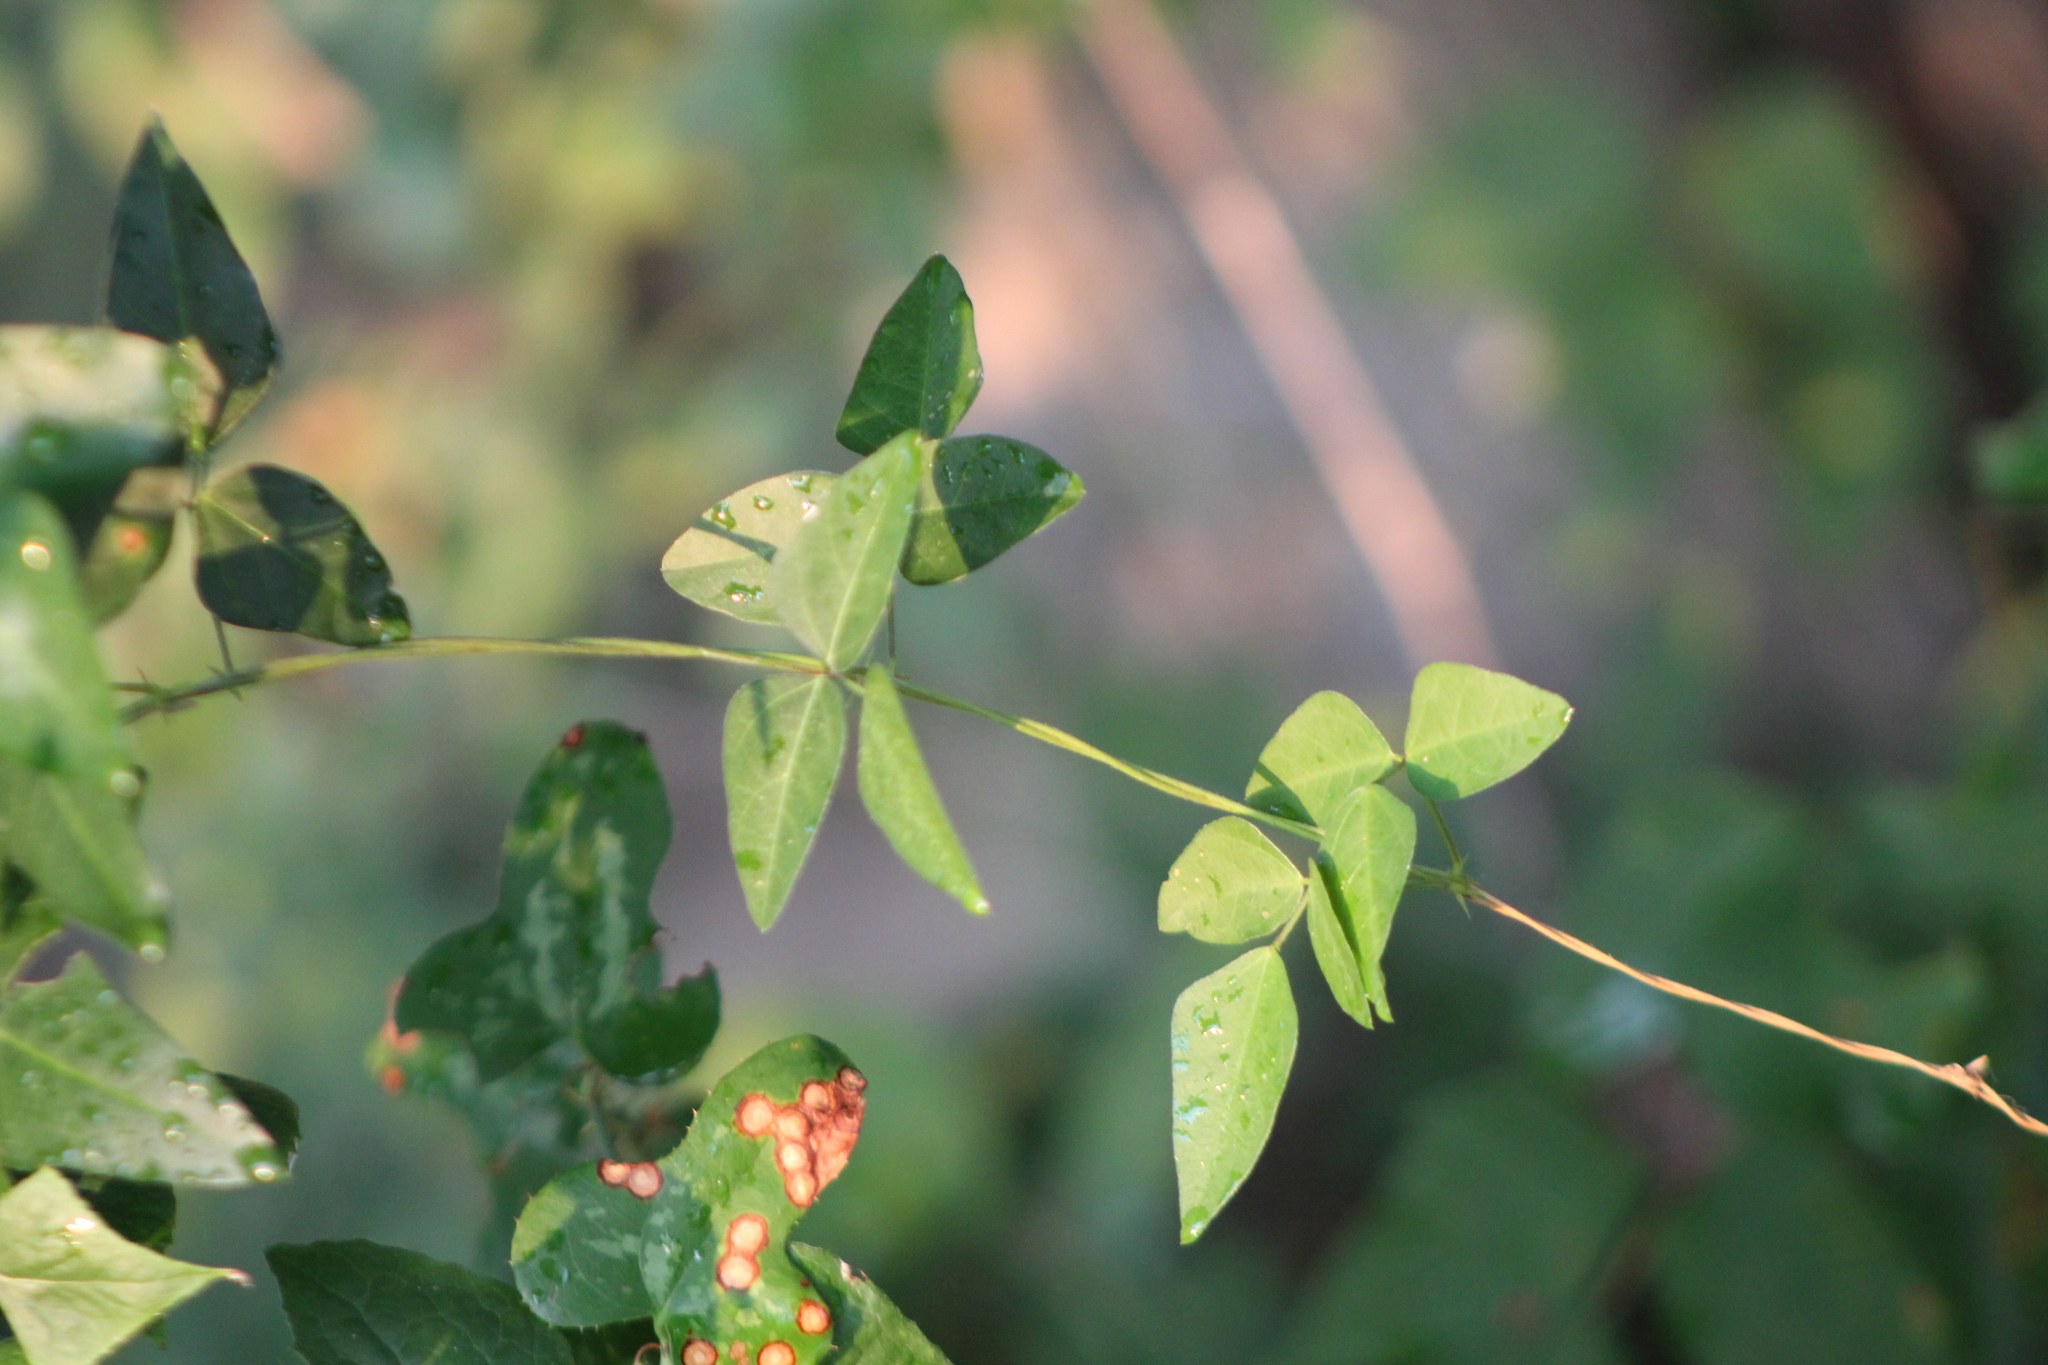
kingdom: Plantae
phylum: Tracheophyta
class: Magnoliopsida
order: Fabales
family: Fabaceae
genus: Strophostyles
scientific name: Strophostyles helvola
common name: Trailing wild bean
